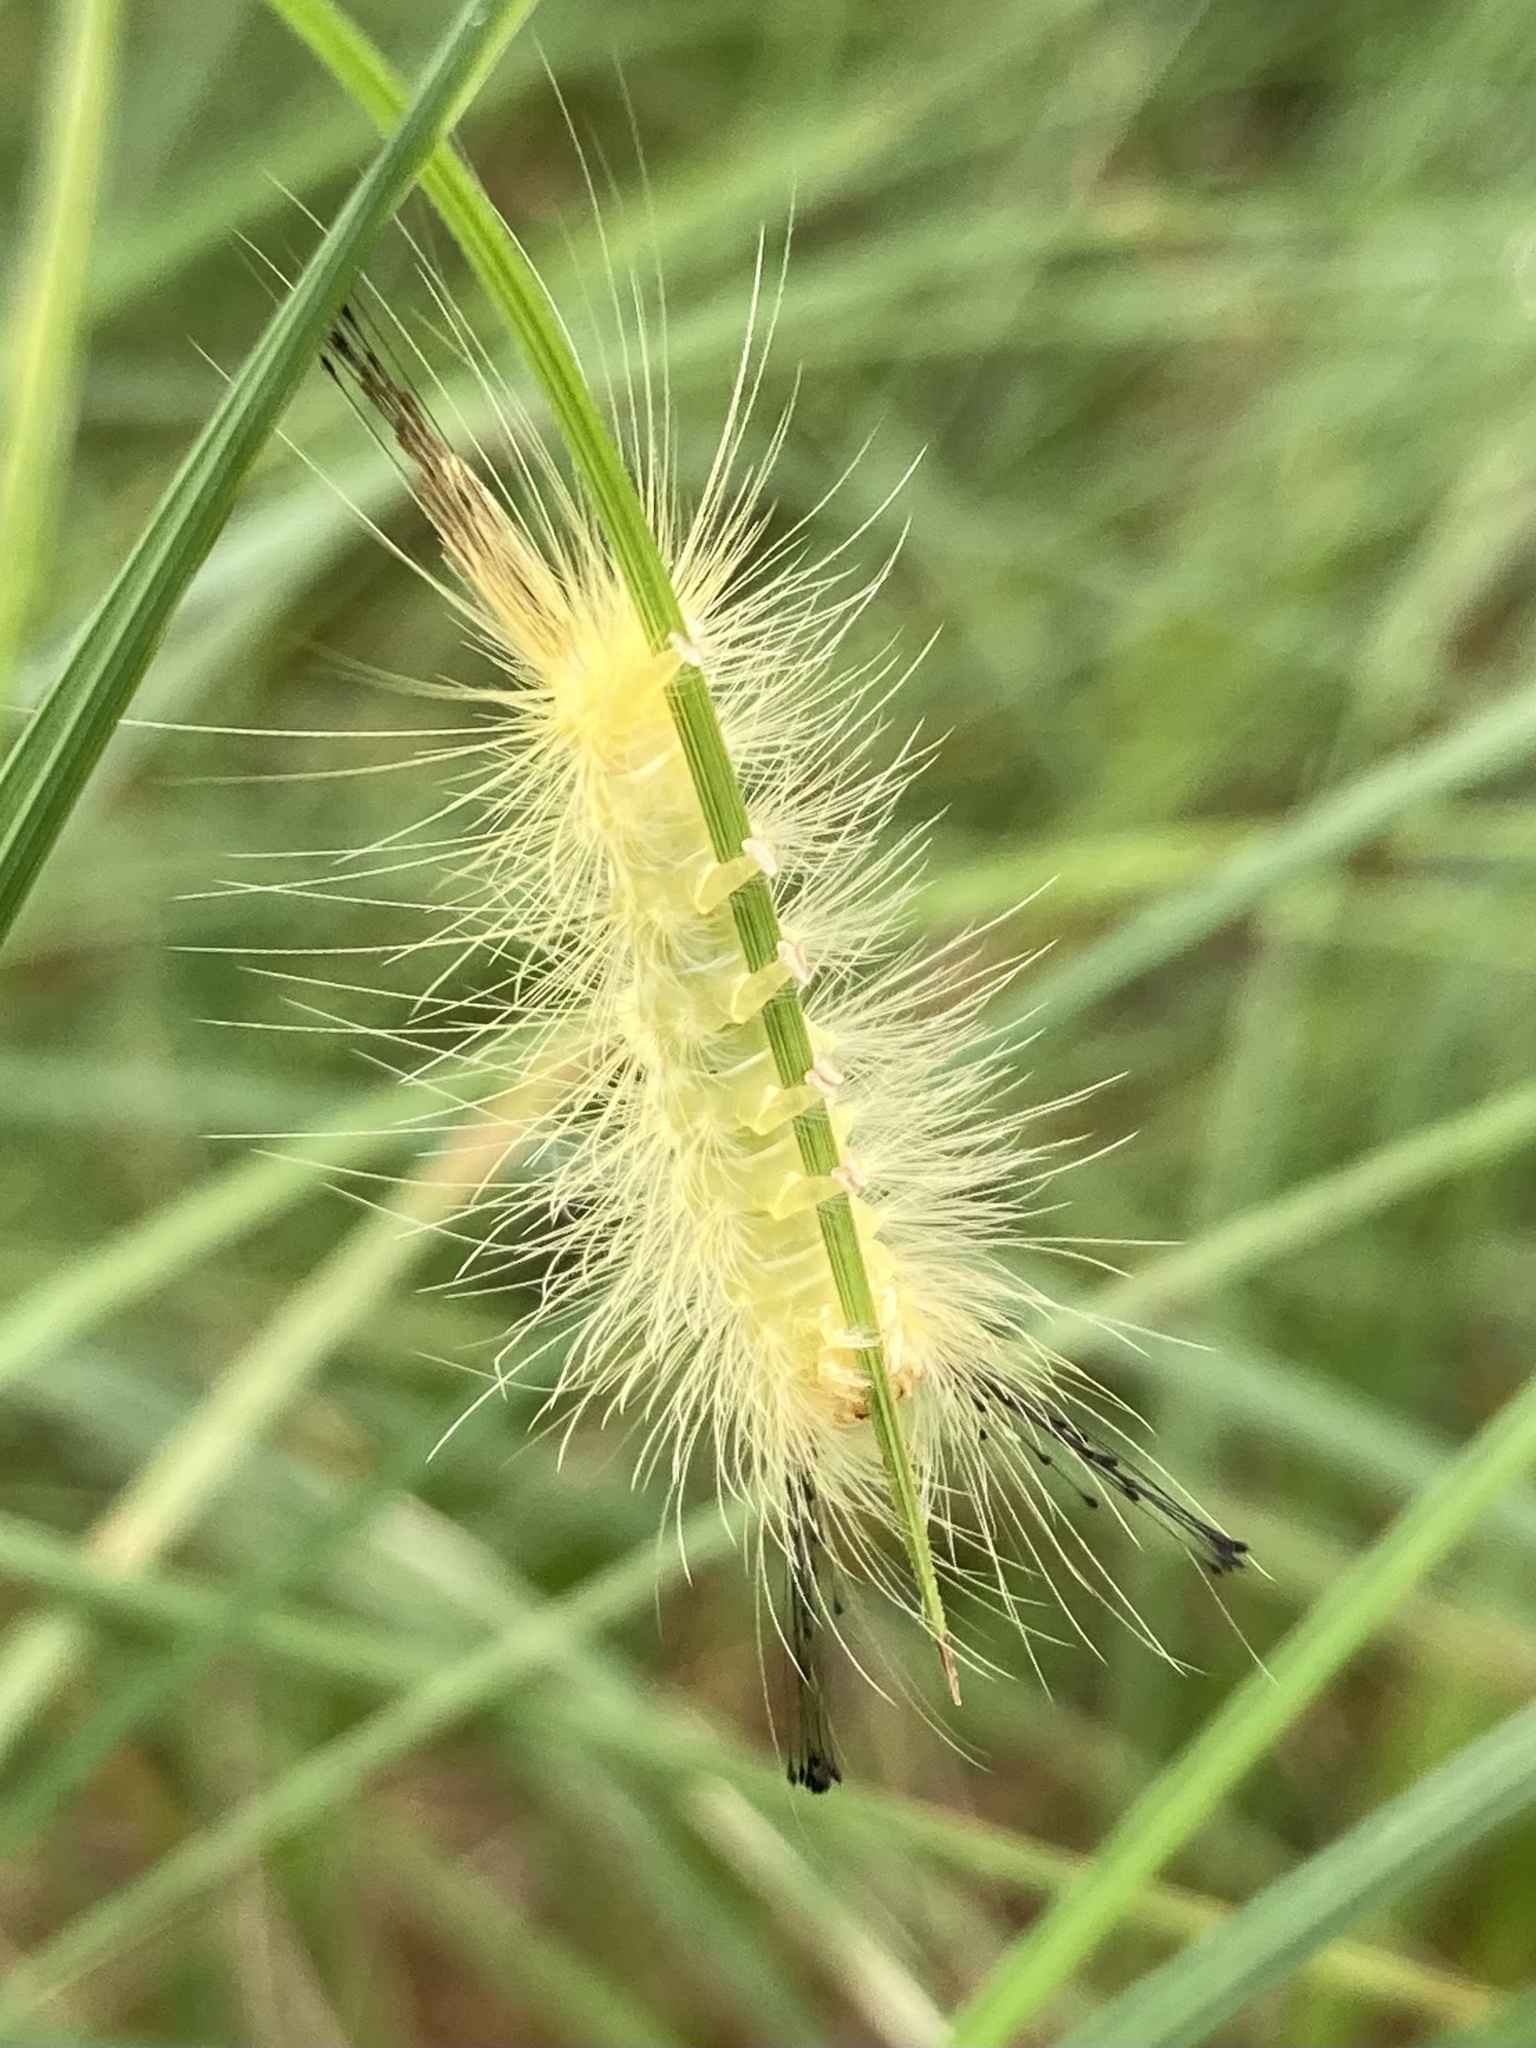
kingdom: Animalia
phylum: Arthropoda
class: Insecta
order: Lepidoptera
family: Erebidae
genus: Orgyia
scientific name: Orgyia definita
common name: Definite tussock moth
